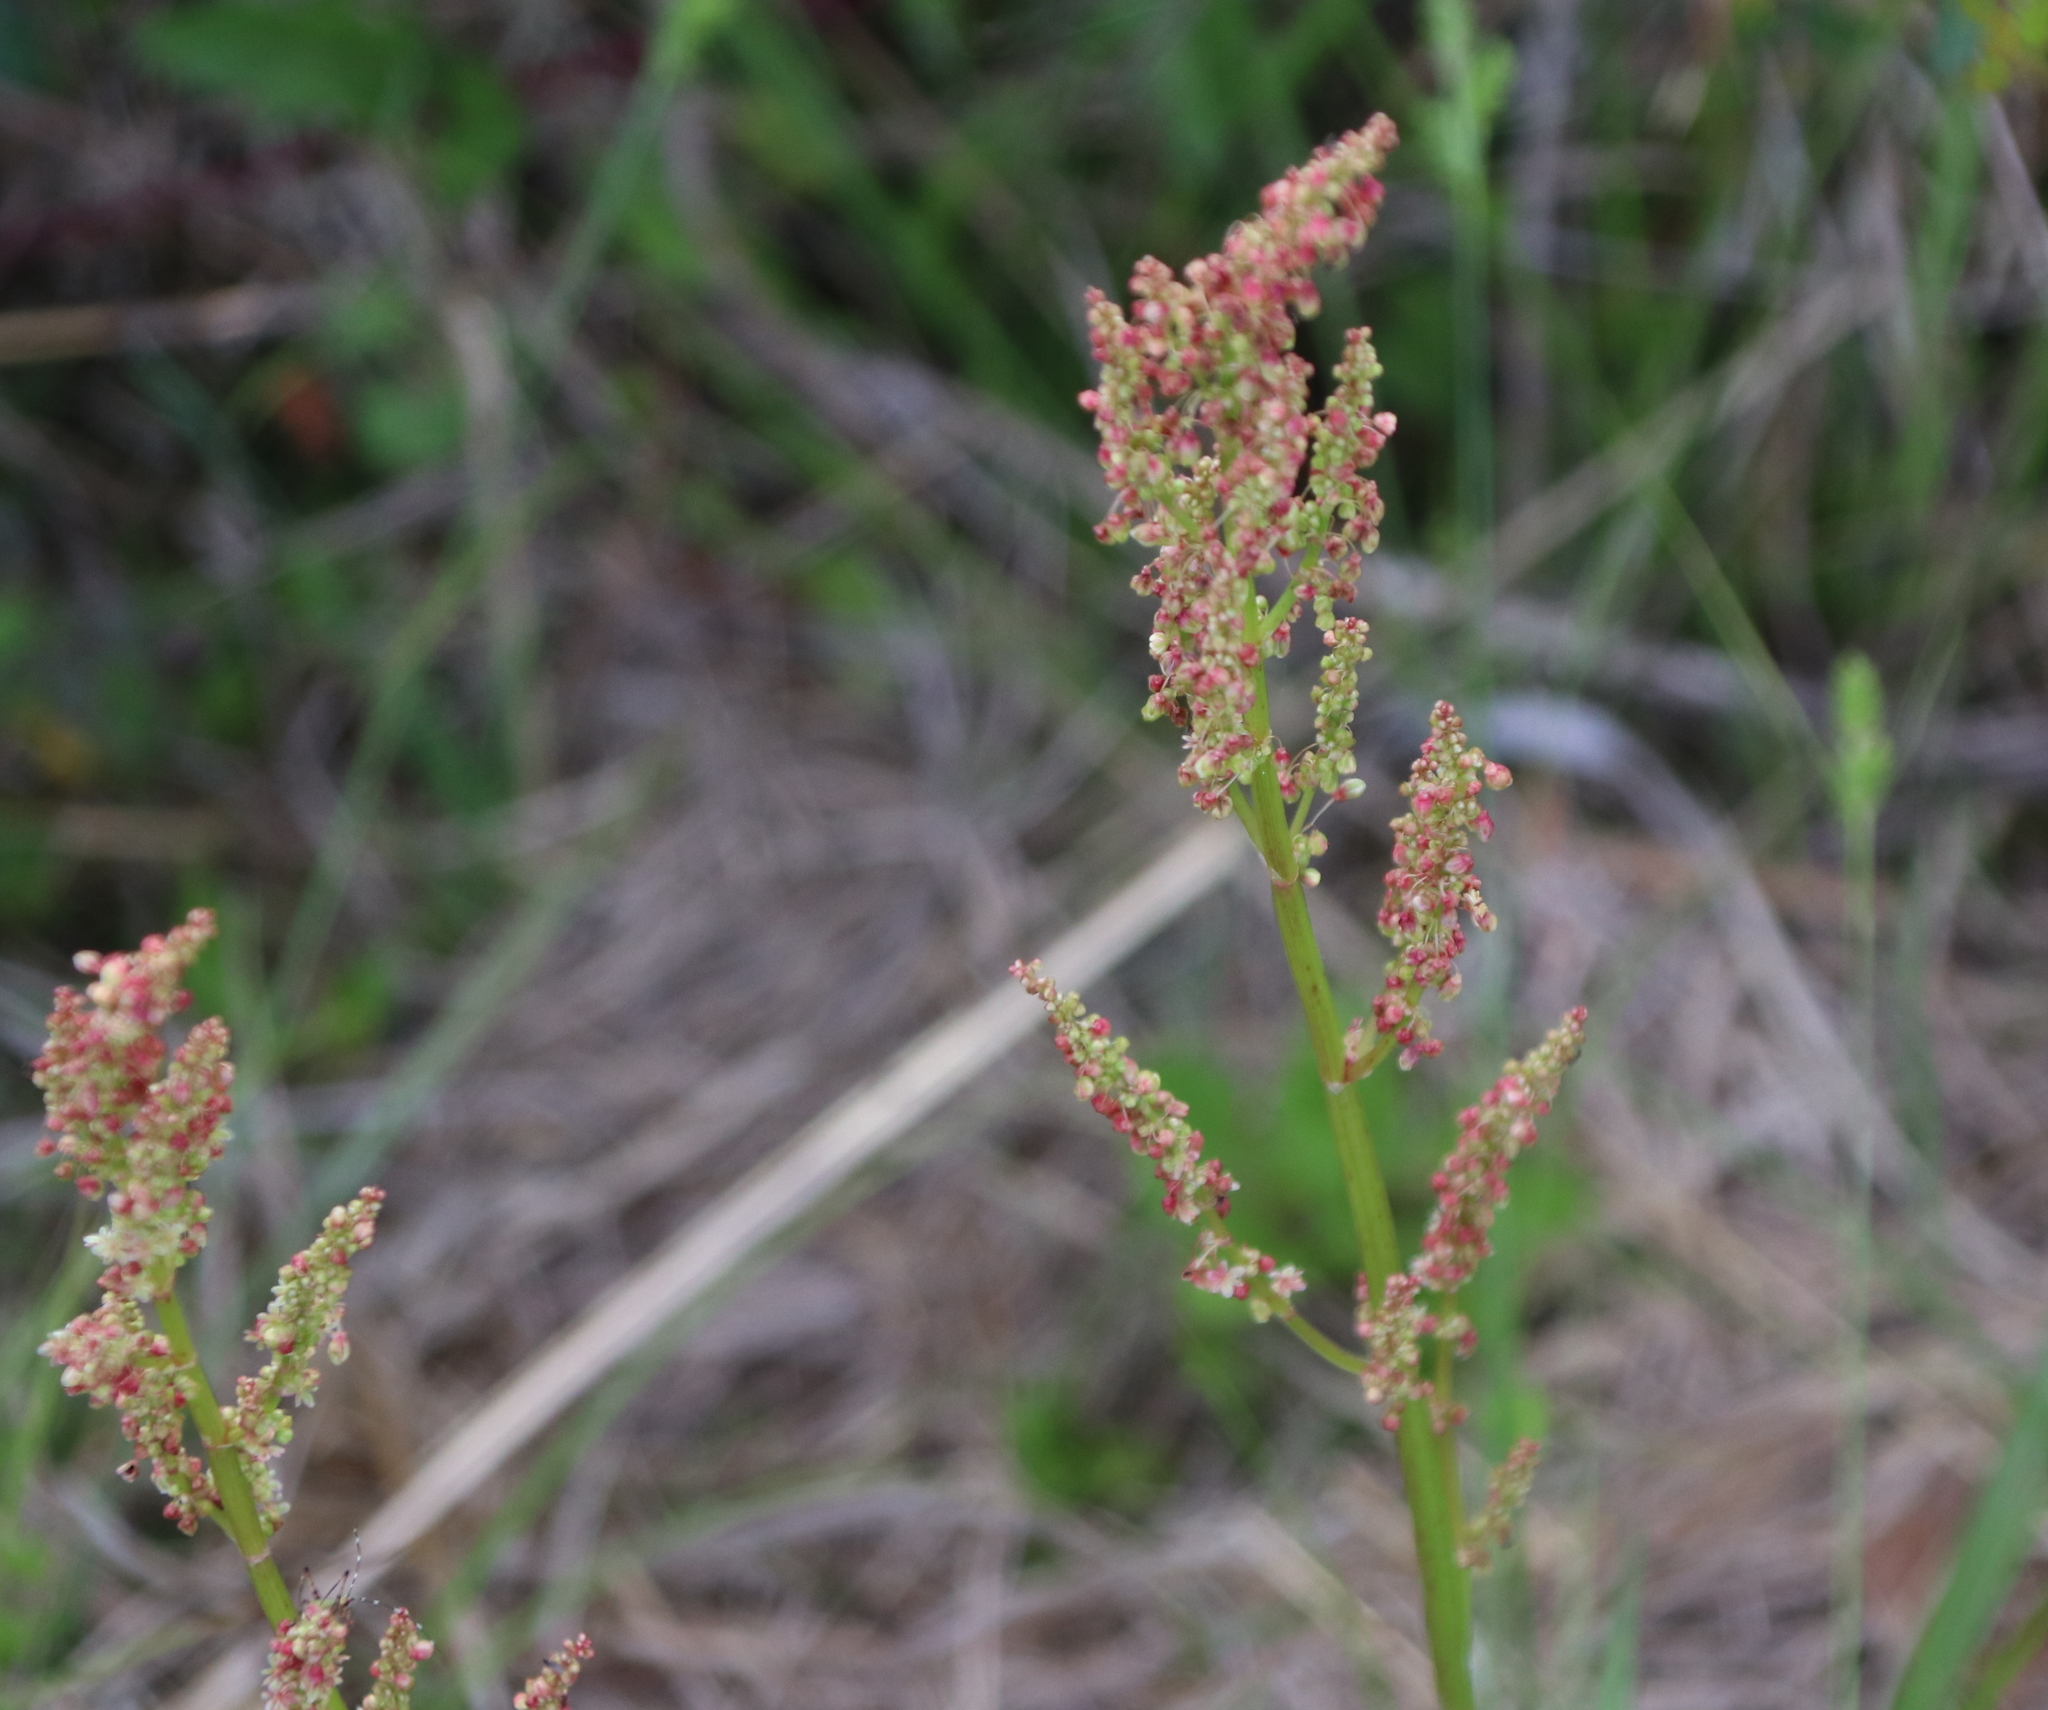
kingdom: Plantae
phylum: Tracheophyta
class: Magnoliopsida
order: Caryophyllales
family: Polygonaceae
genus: Rumex
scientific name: Rumex hastatulus
